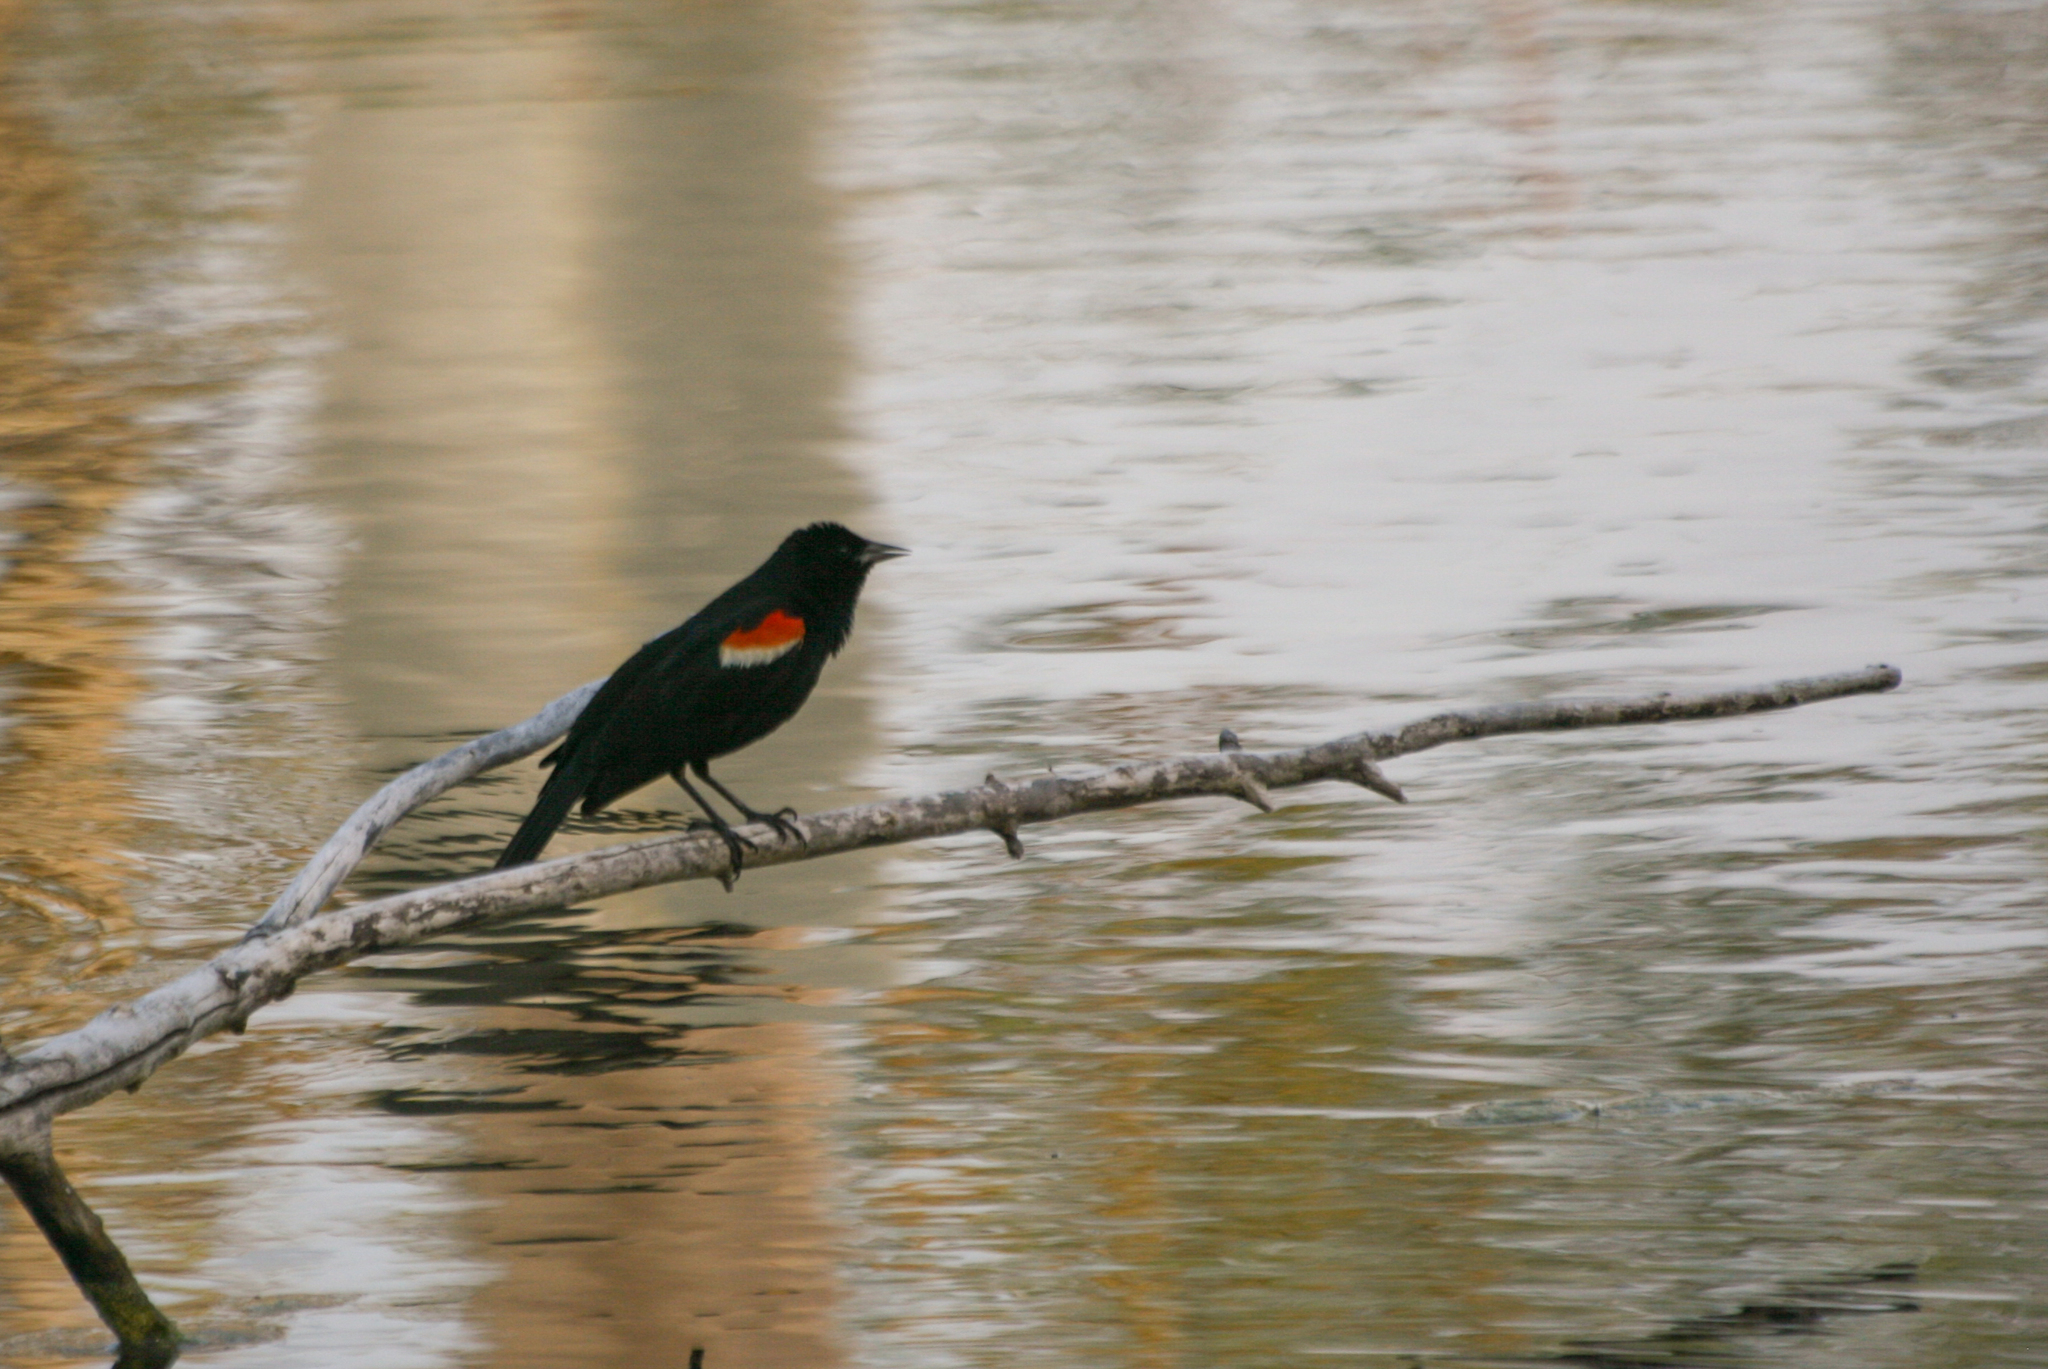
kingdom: Animalia
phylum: Chordata
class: Aves
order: Passeriformes
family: Icteridae
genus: Agelaius
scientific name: Agelaius phoeniceus
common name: Red-winged blackbird
